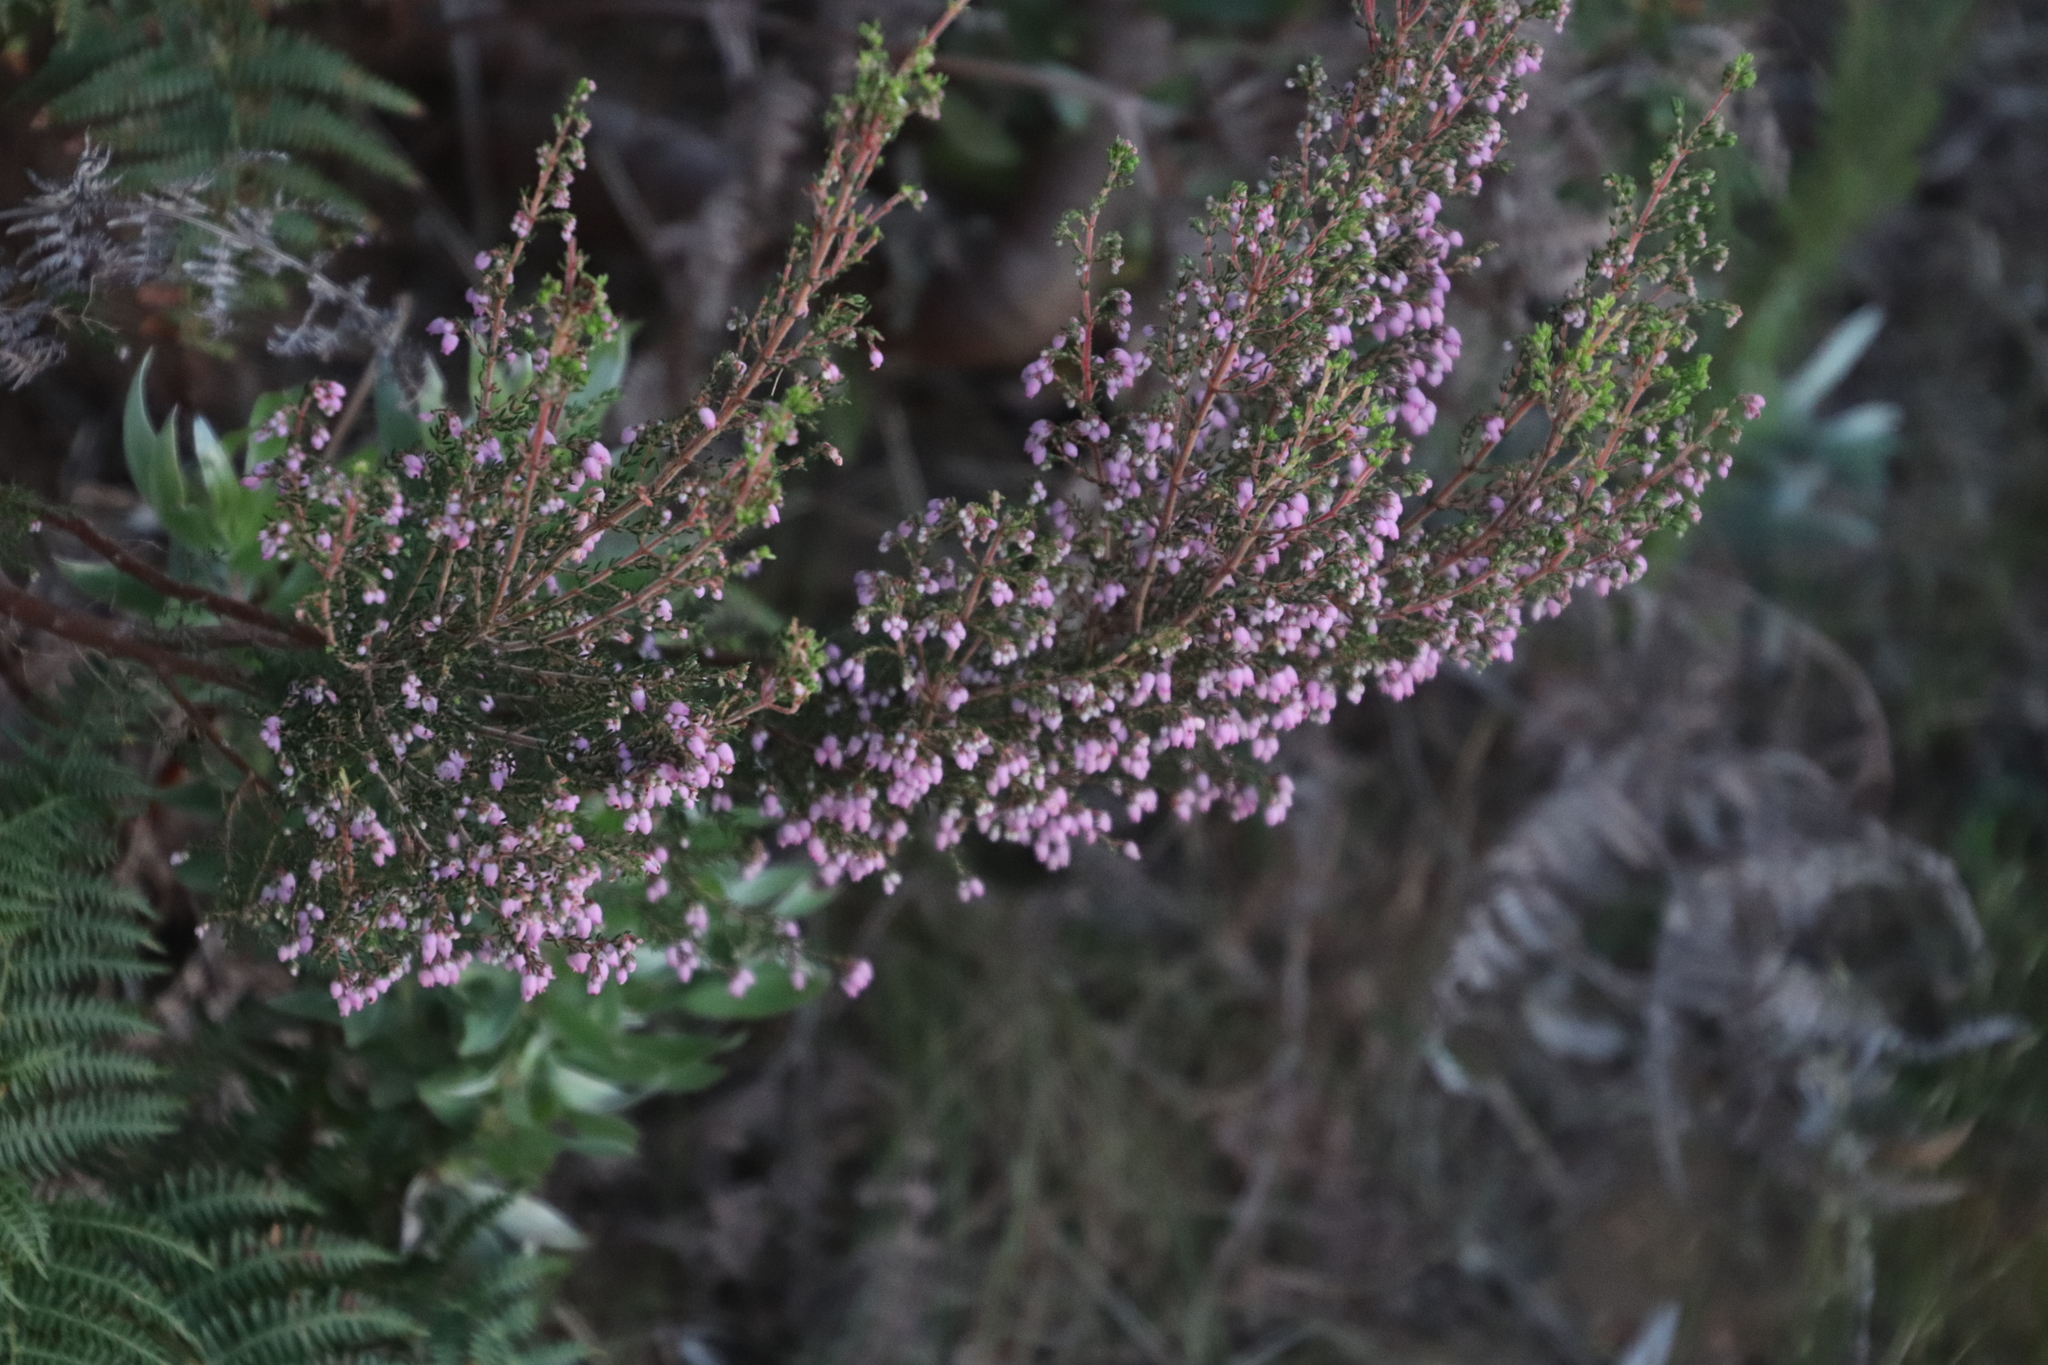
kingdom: Plantae
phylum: Tracheophyta
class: Magnoliopsida
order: Ericales
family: Ericaceae
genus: Erica
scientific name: Erica hirtiflora
